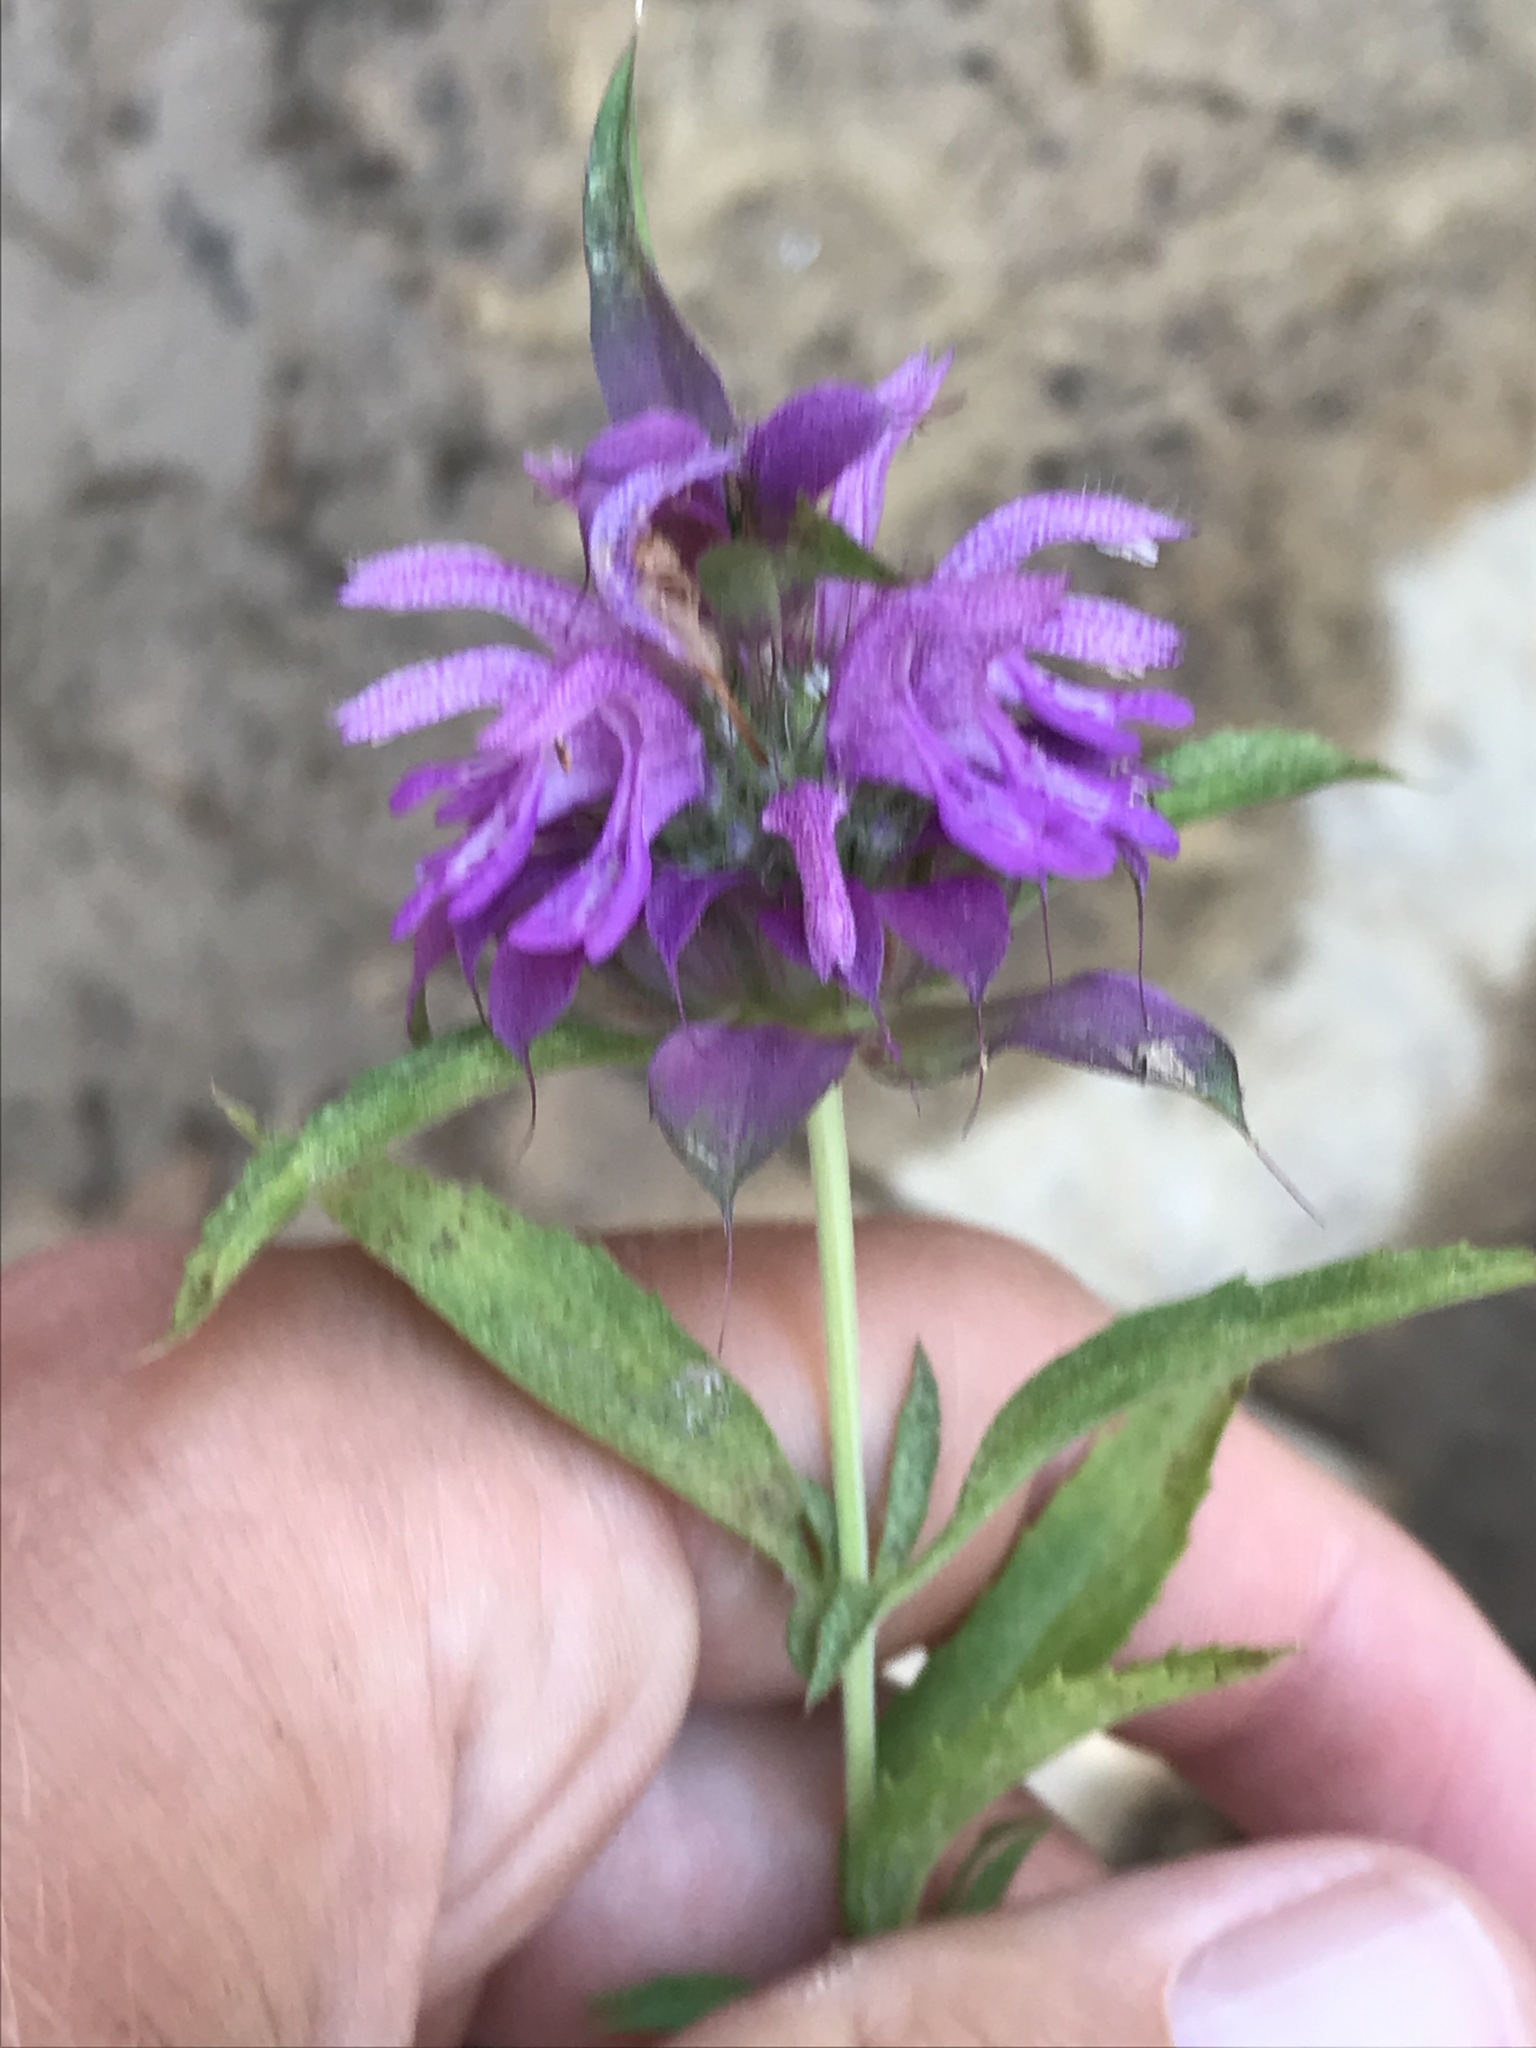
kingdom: Plantae
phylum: Tracheophyta
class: Magnoliopsida
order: Lamiales
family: Lamiaceae
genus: Monarda
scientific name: Monarda citriodora
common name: Lemon beebalm
